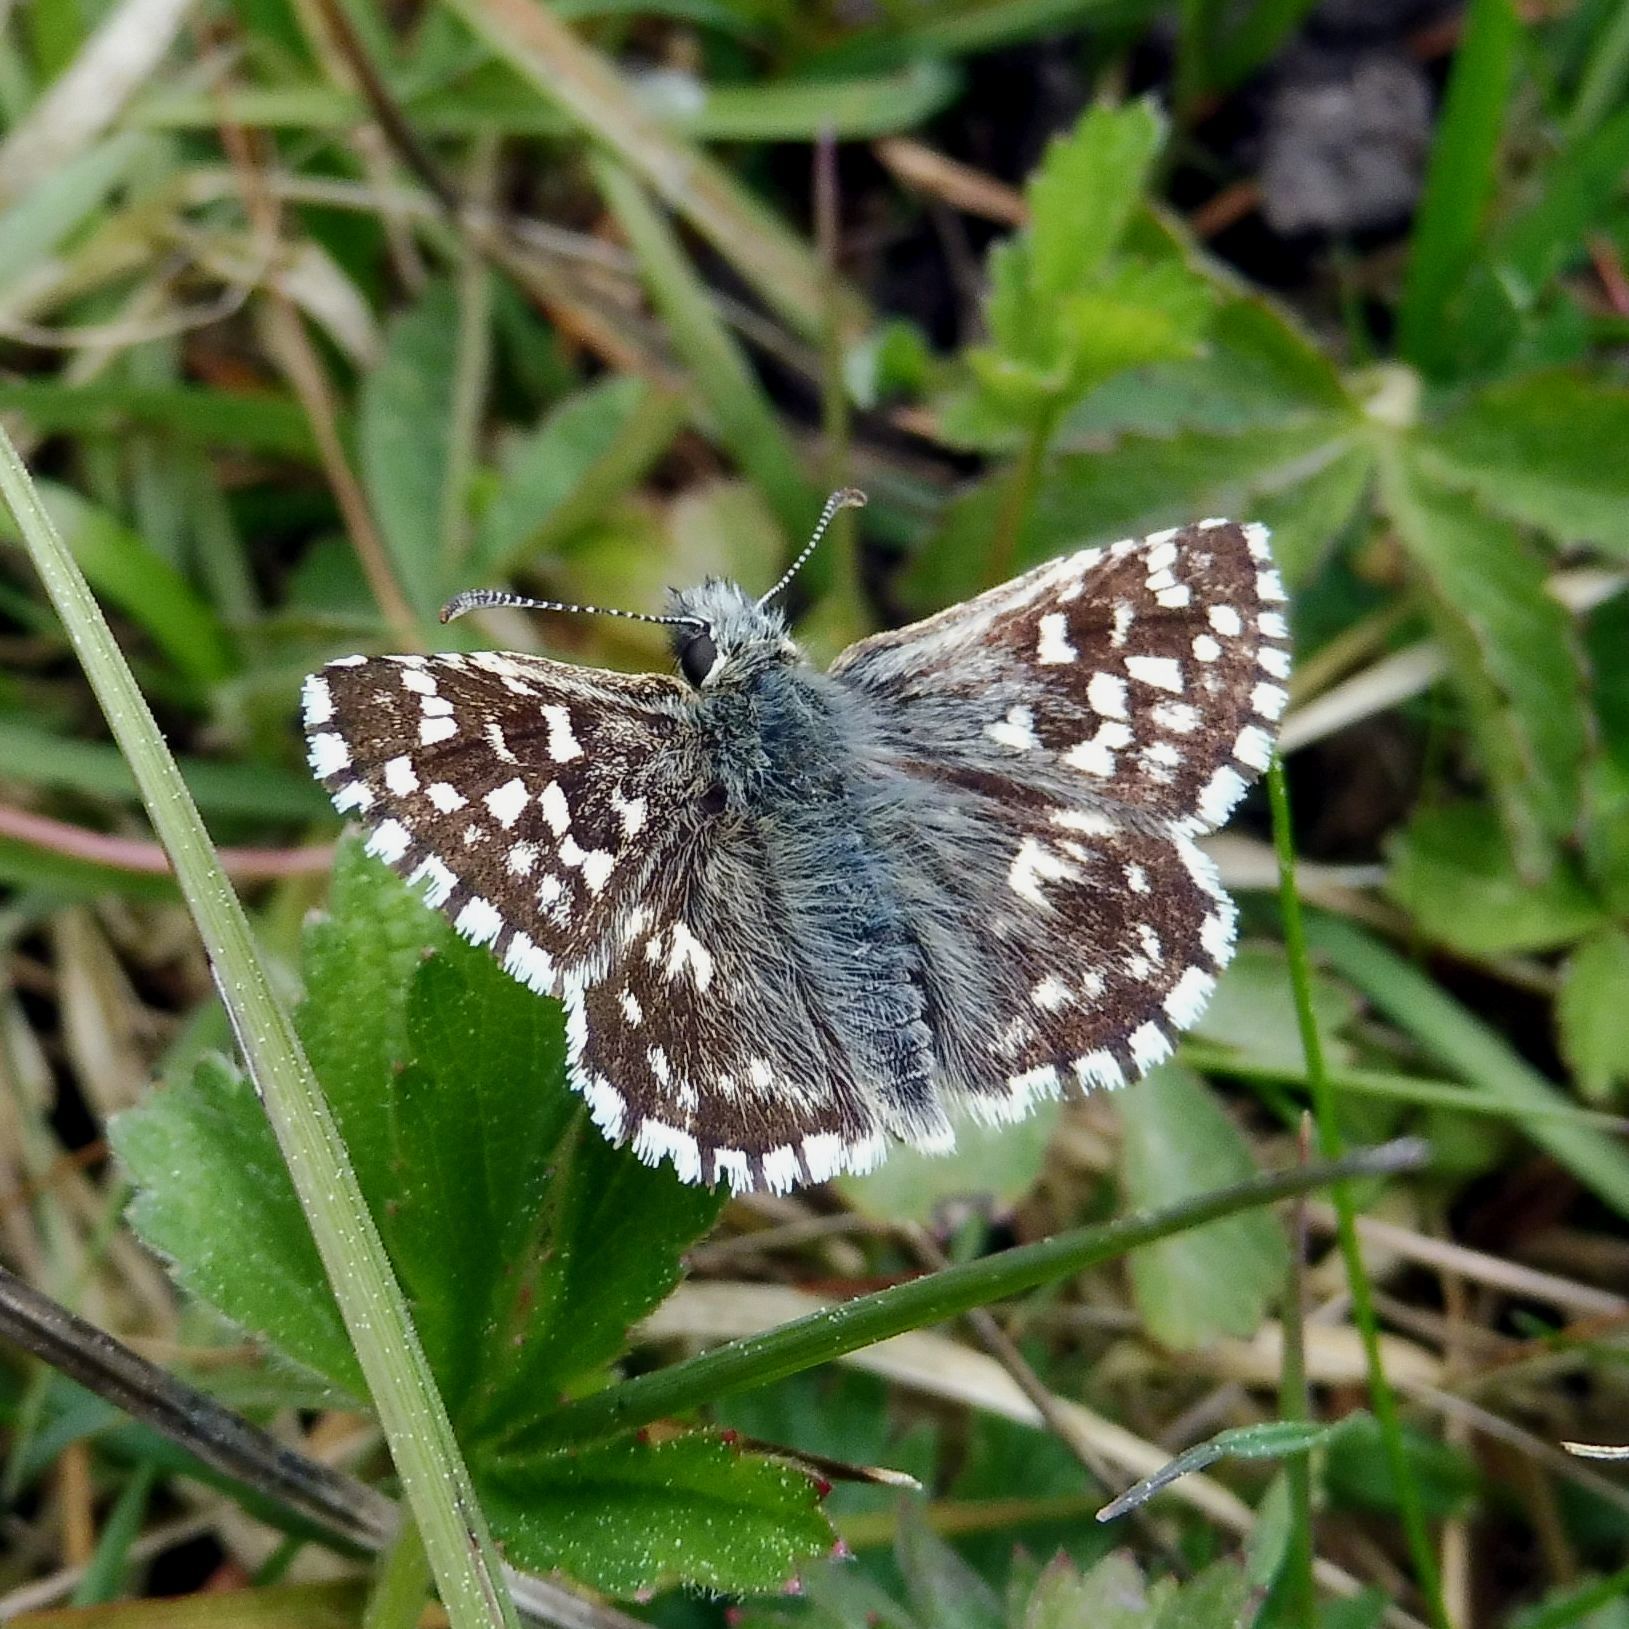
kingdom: Animalia
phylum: Arthropoda
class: Insecta
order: Lepidoptera
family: Hesperiidae
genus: Pyrgus
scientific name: Pyrgus malvae
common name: Grizzled skipper
